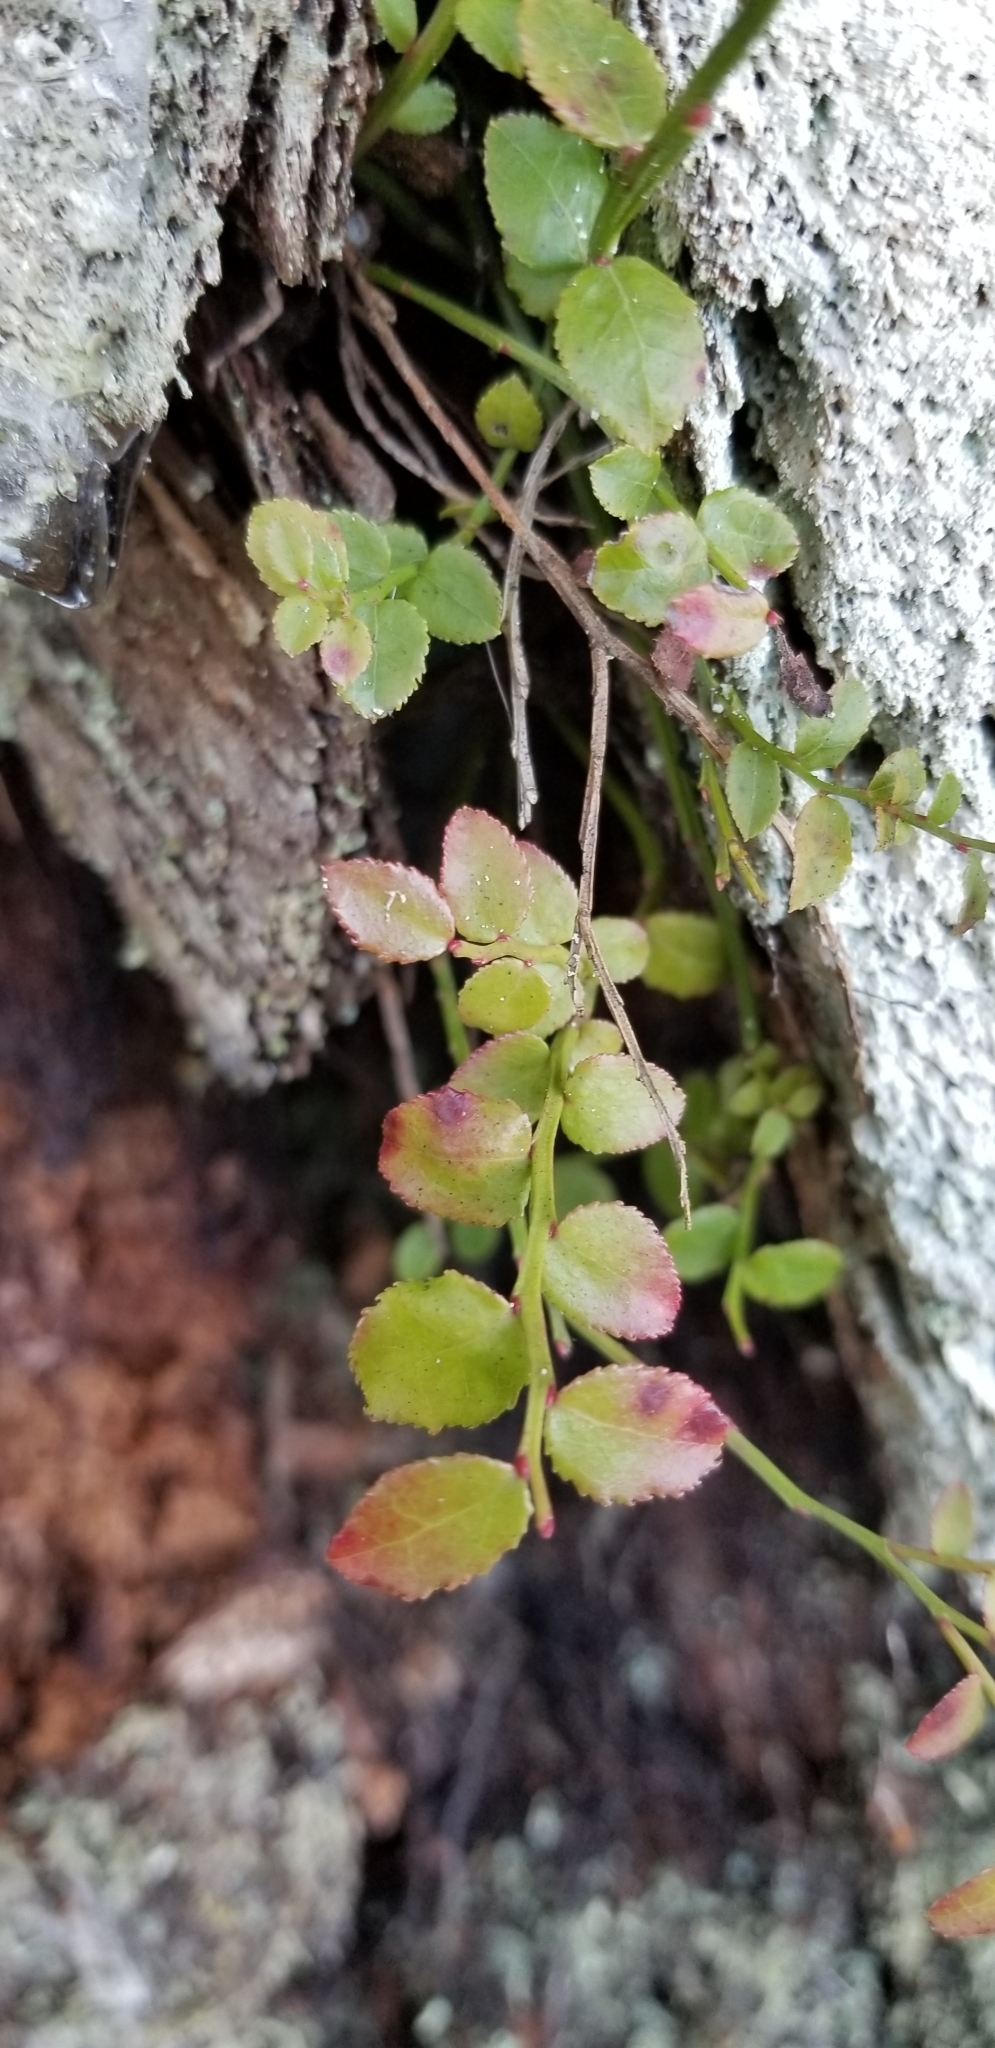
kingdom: Plantae
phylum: Tracheophyta
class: Magnoliopsida
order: Ericales
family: Ericaceae
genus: Vaccinium
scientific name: Vaccinium parvifolium
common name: Red-huckleberry
